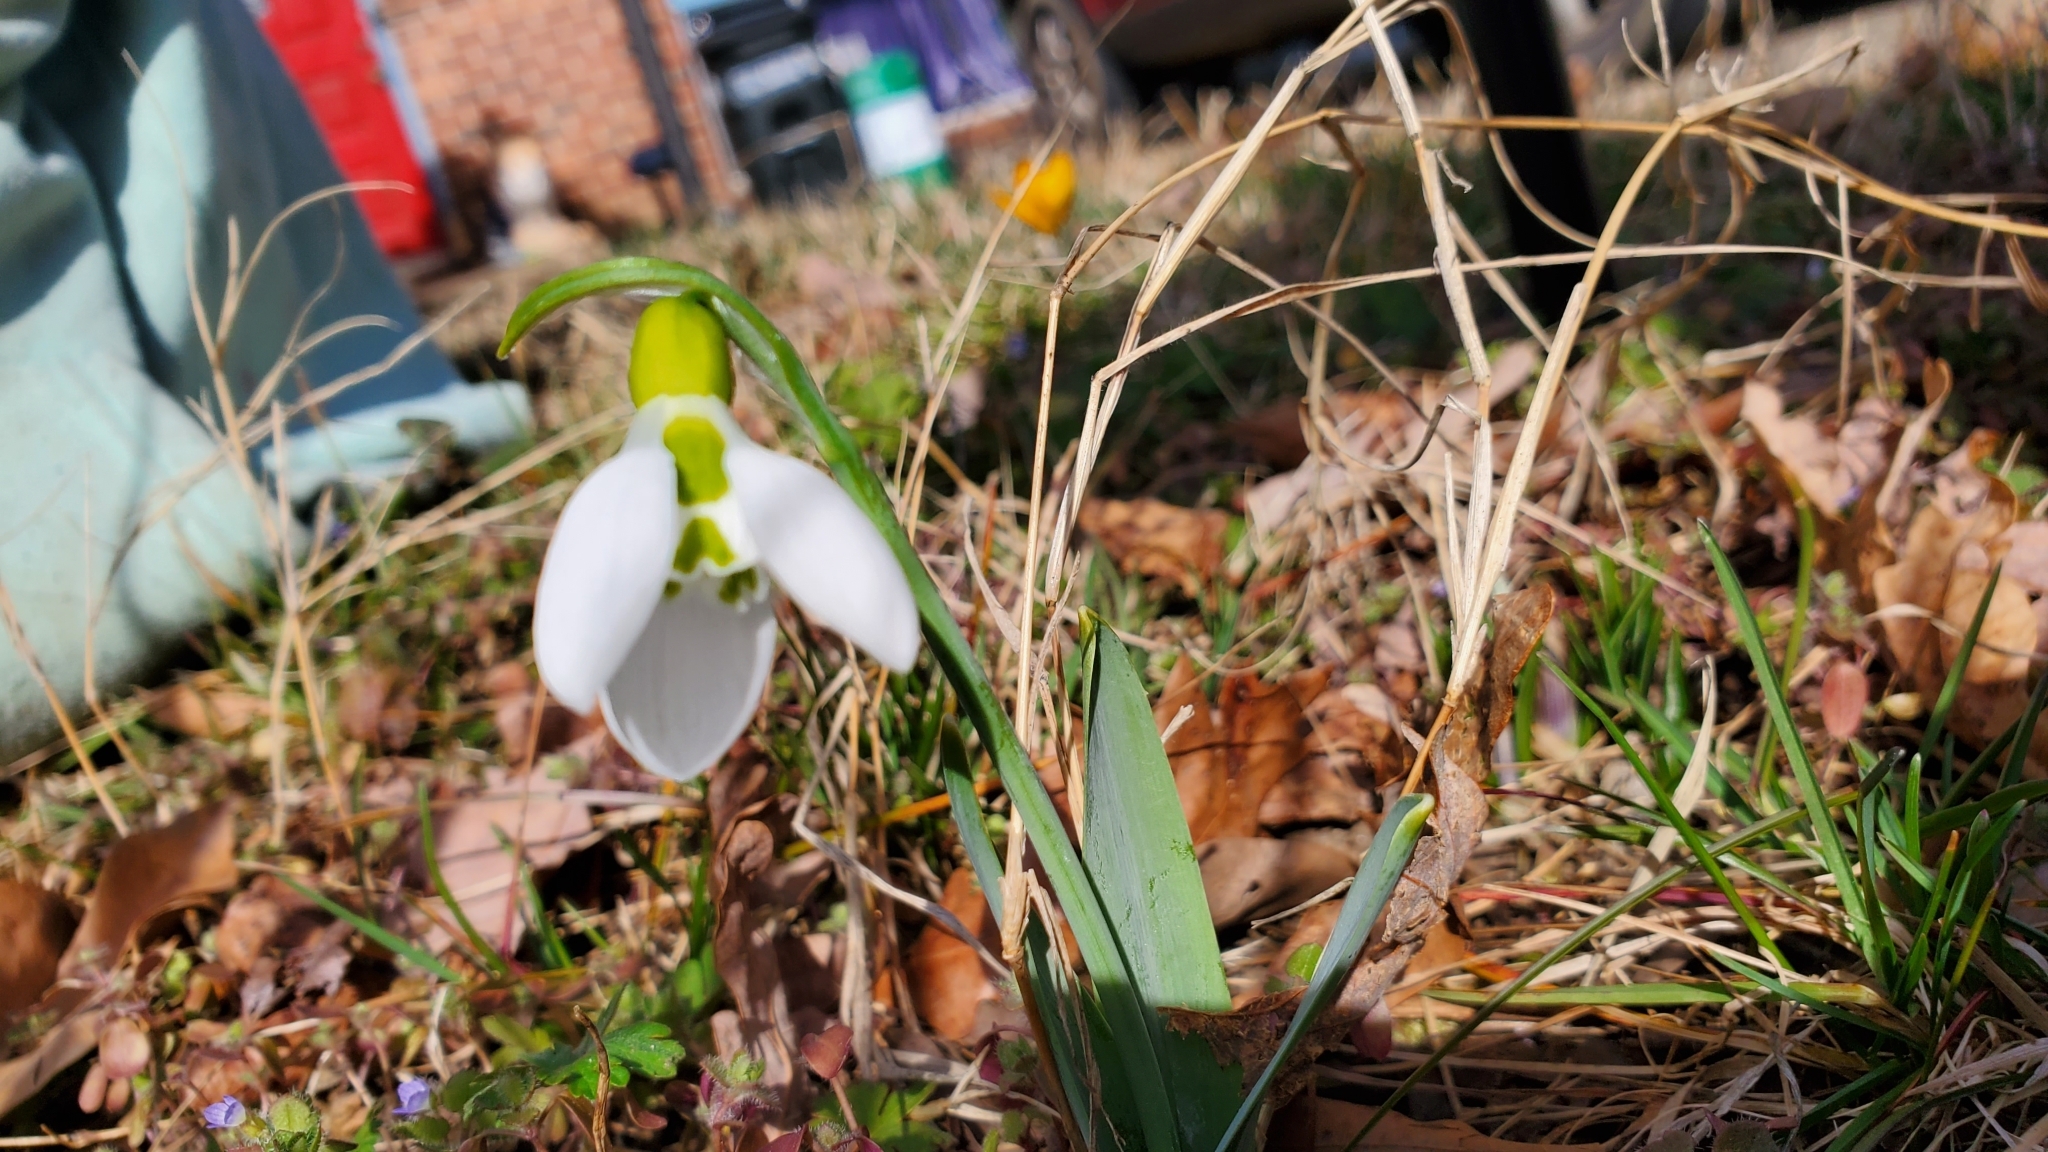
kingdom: Plantae
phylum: Tracheophyta
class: Liliopsida
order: Asparagales
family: Amaryllidaceae
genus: Galanthus
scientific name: Galanthus elwesii
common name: Greater snowdrop
